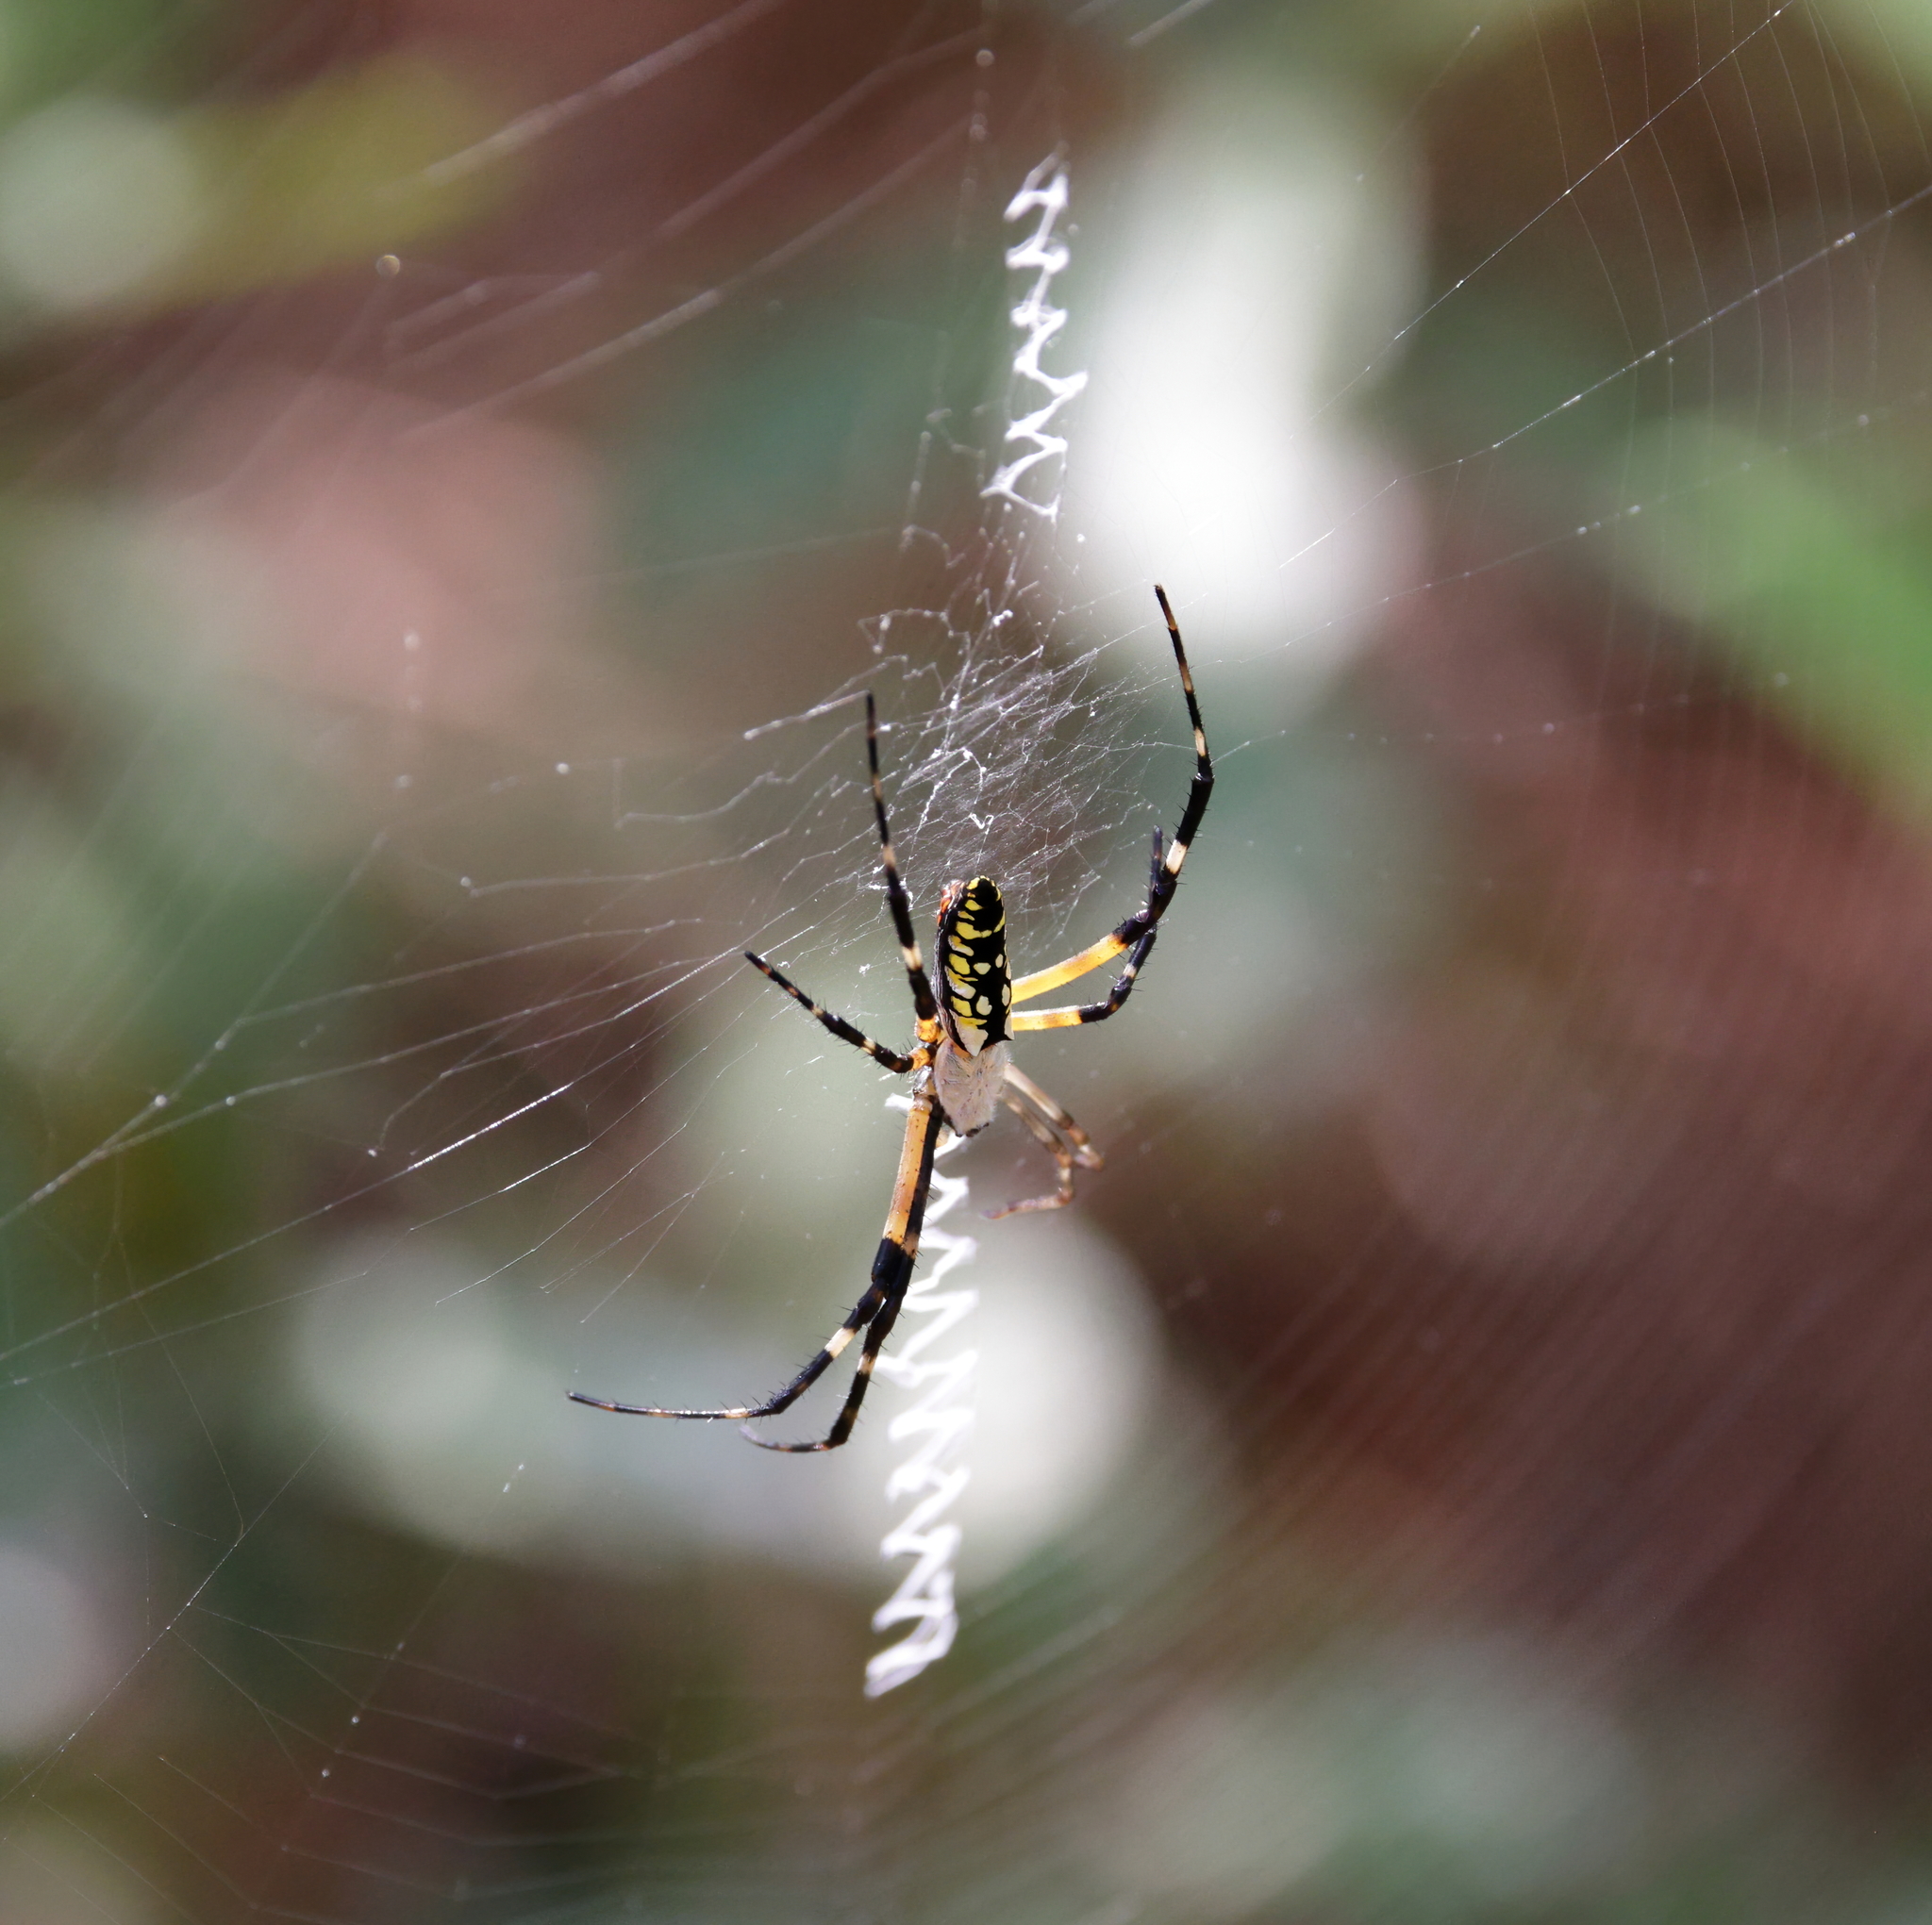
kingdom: Animalia
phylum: Arthropoda
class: Arachnida
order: Araneae
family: Araneidae
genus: Argiope
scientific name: Argiope aurantia
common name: Orb weavers
